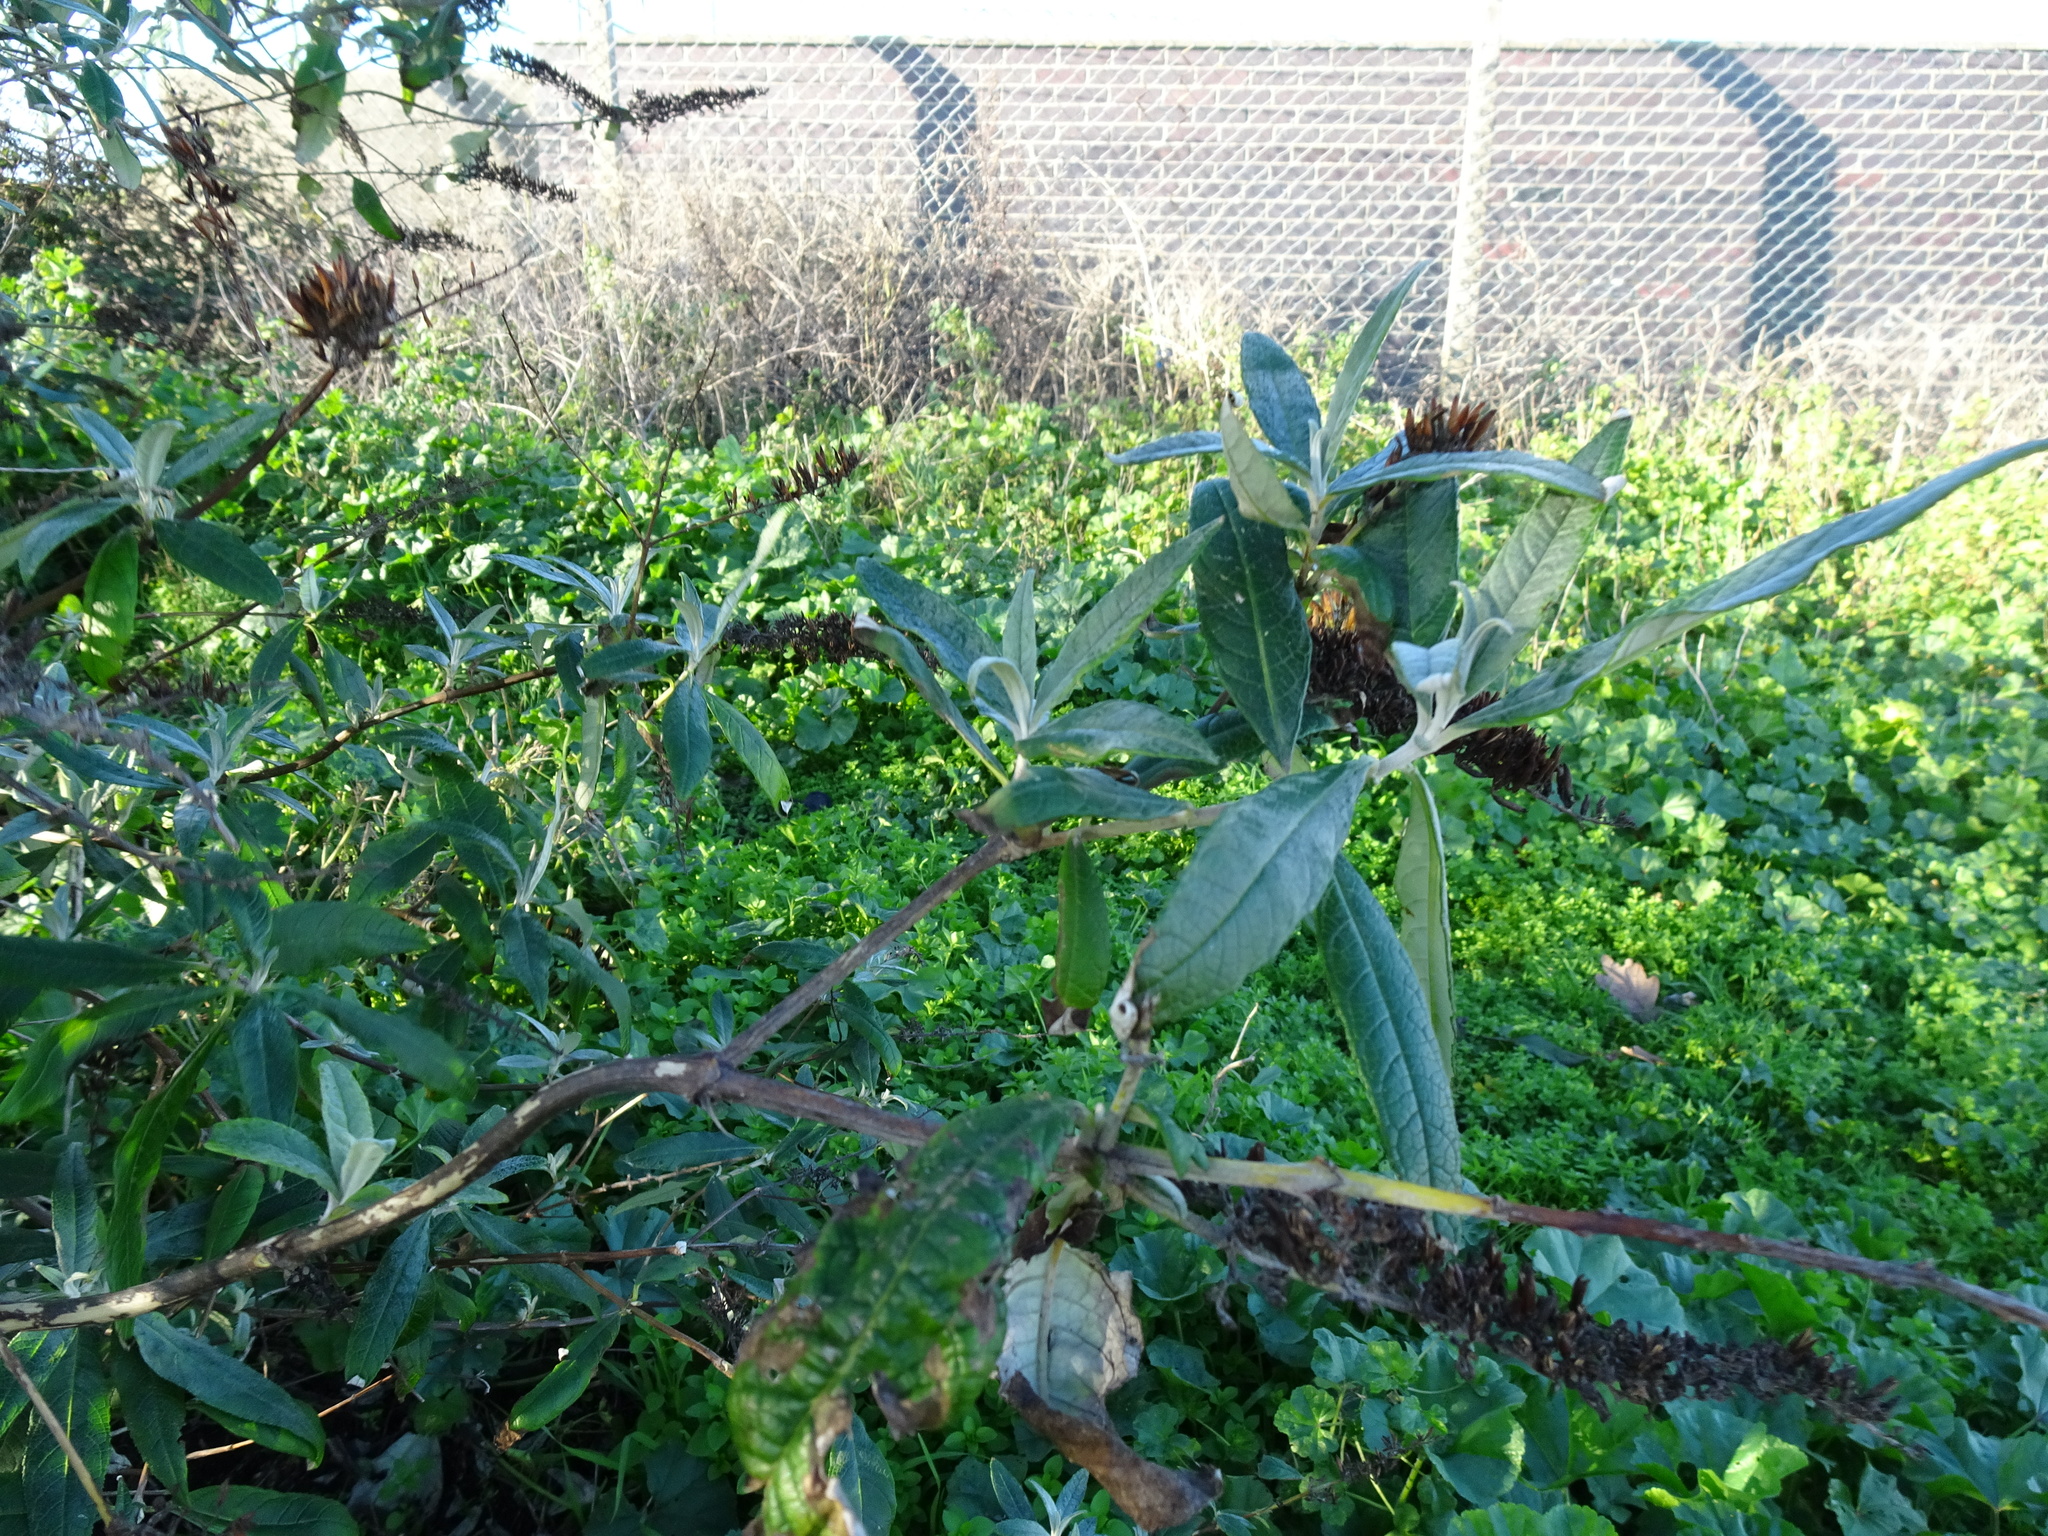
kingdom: Plantae
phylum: Tracheophyta
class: Magnoliopsida
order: Lamiales
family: Scrophulariaceae
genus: Buddleja
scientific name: Buddleja davidii
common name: Butterfly-bush
